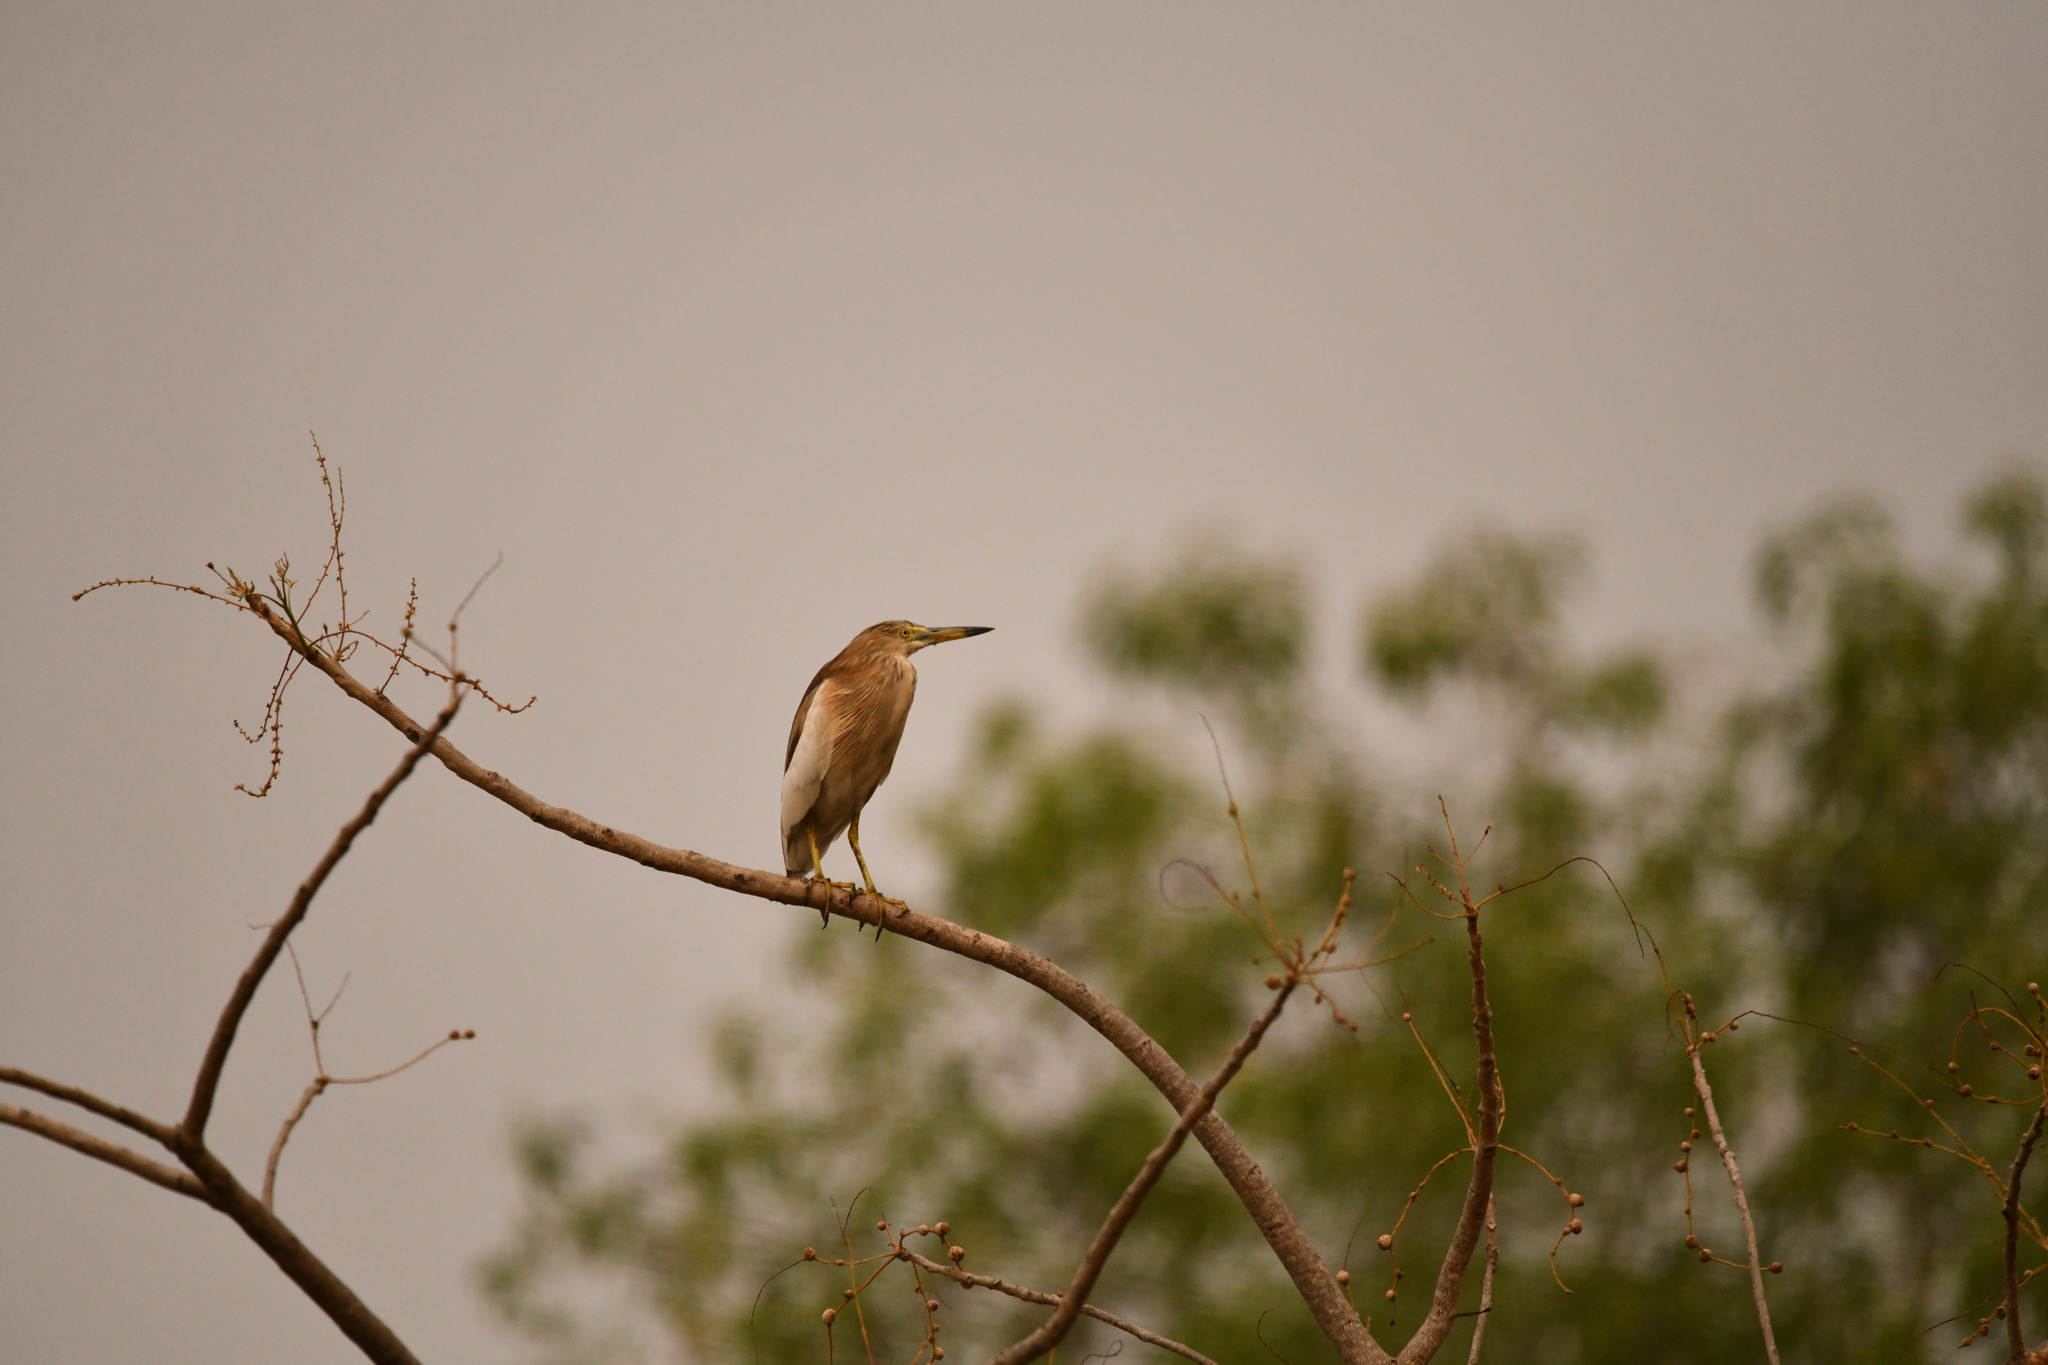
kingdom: Animalia
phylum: Chordata
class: Aves
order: Pelecaniformes
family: Ardeidae
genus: Ardeola
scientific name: Ardeola grayii
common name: Indian pond heron
